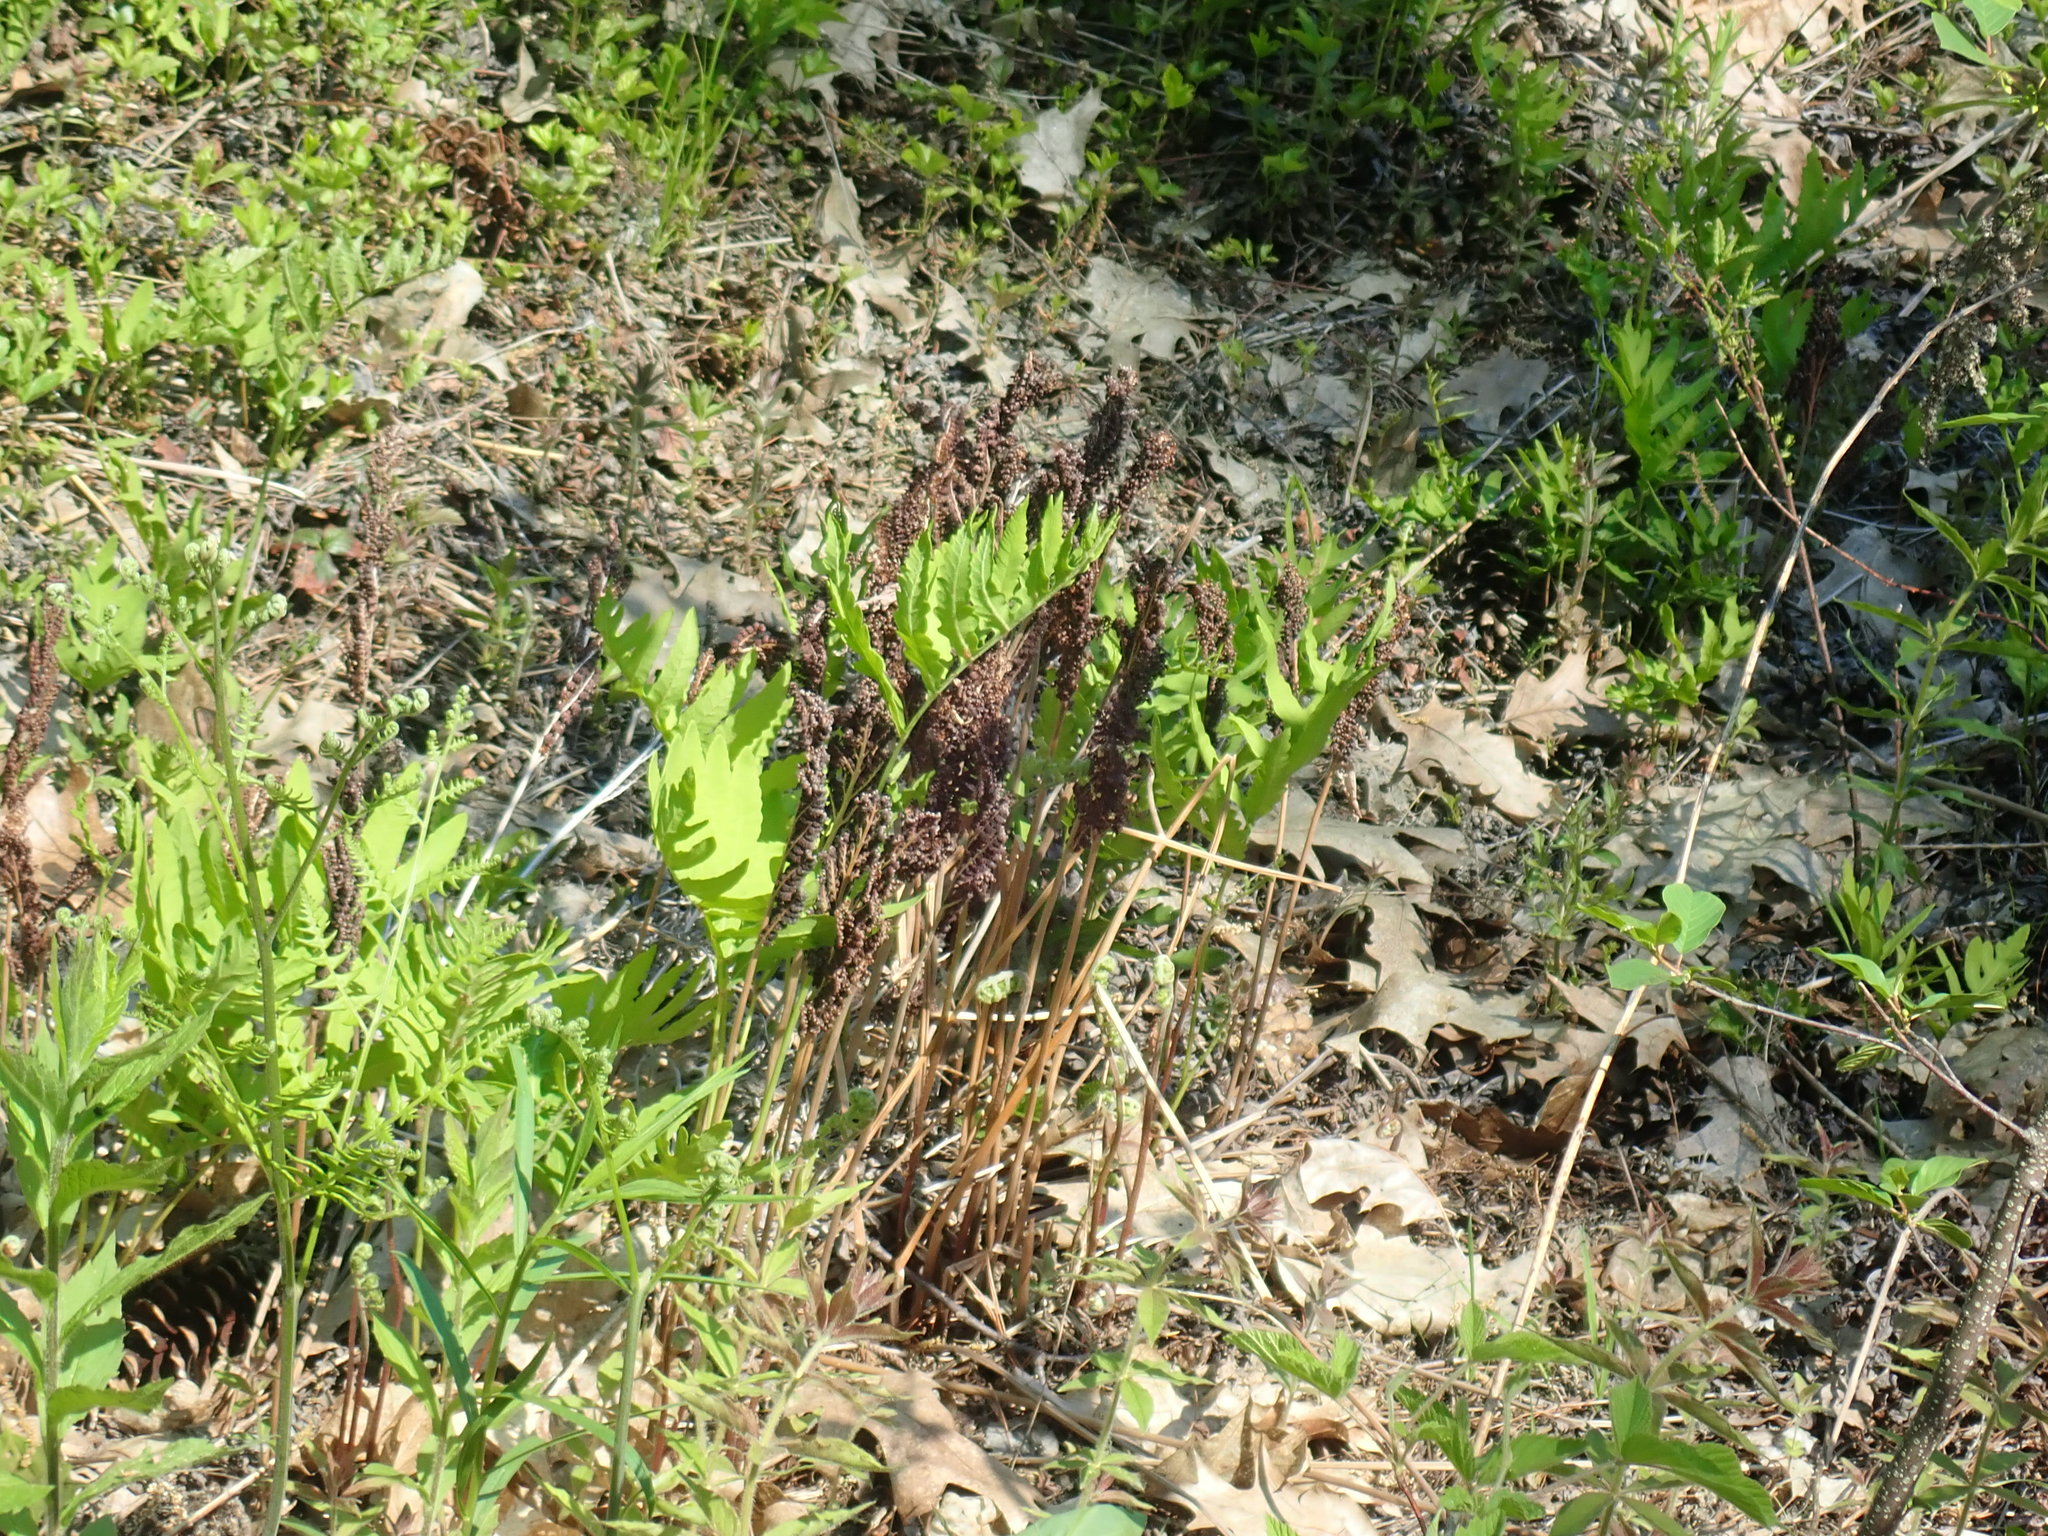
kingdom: Plantae
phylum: Tracheophyta
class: Polypodiopsida
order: Polypodiales
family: Onocleaceae
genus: Onoclea
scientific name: Onoclea sensibilis
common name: Sensitive fern
